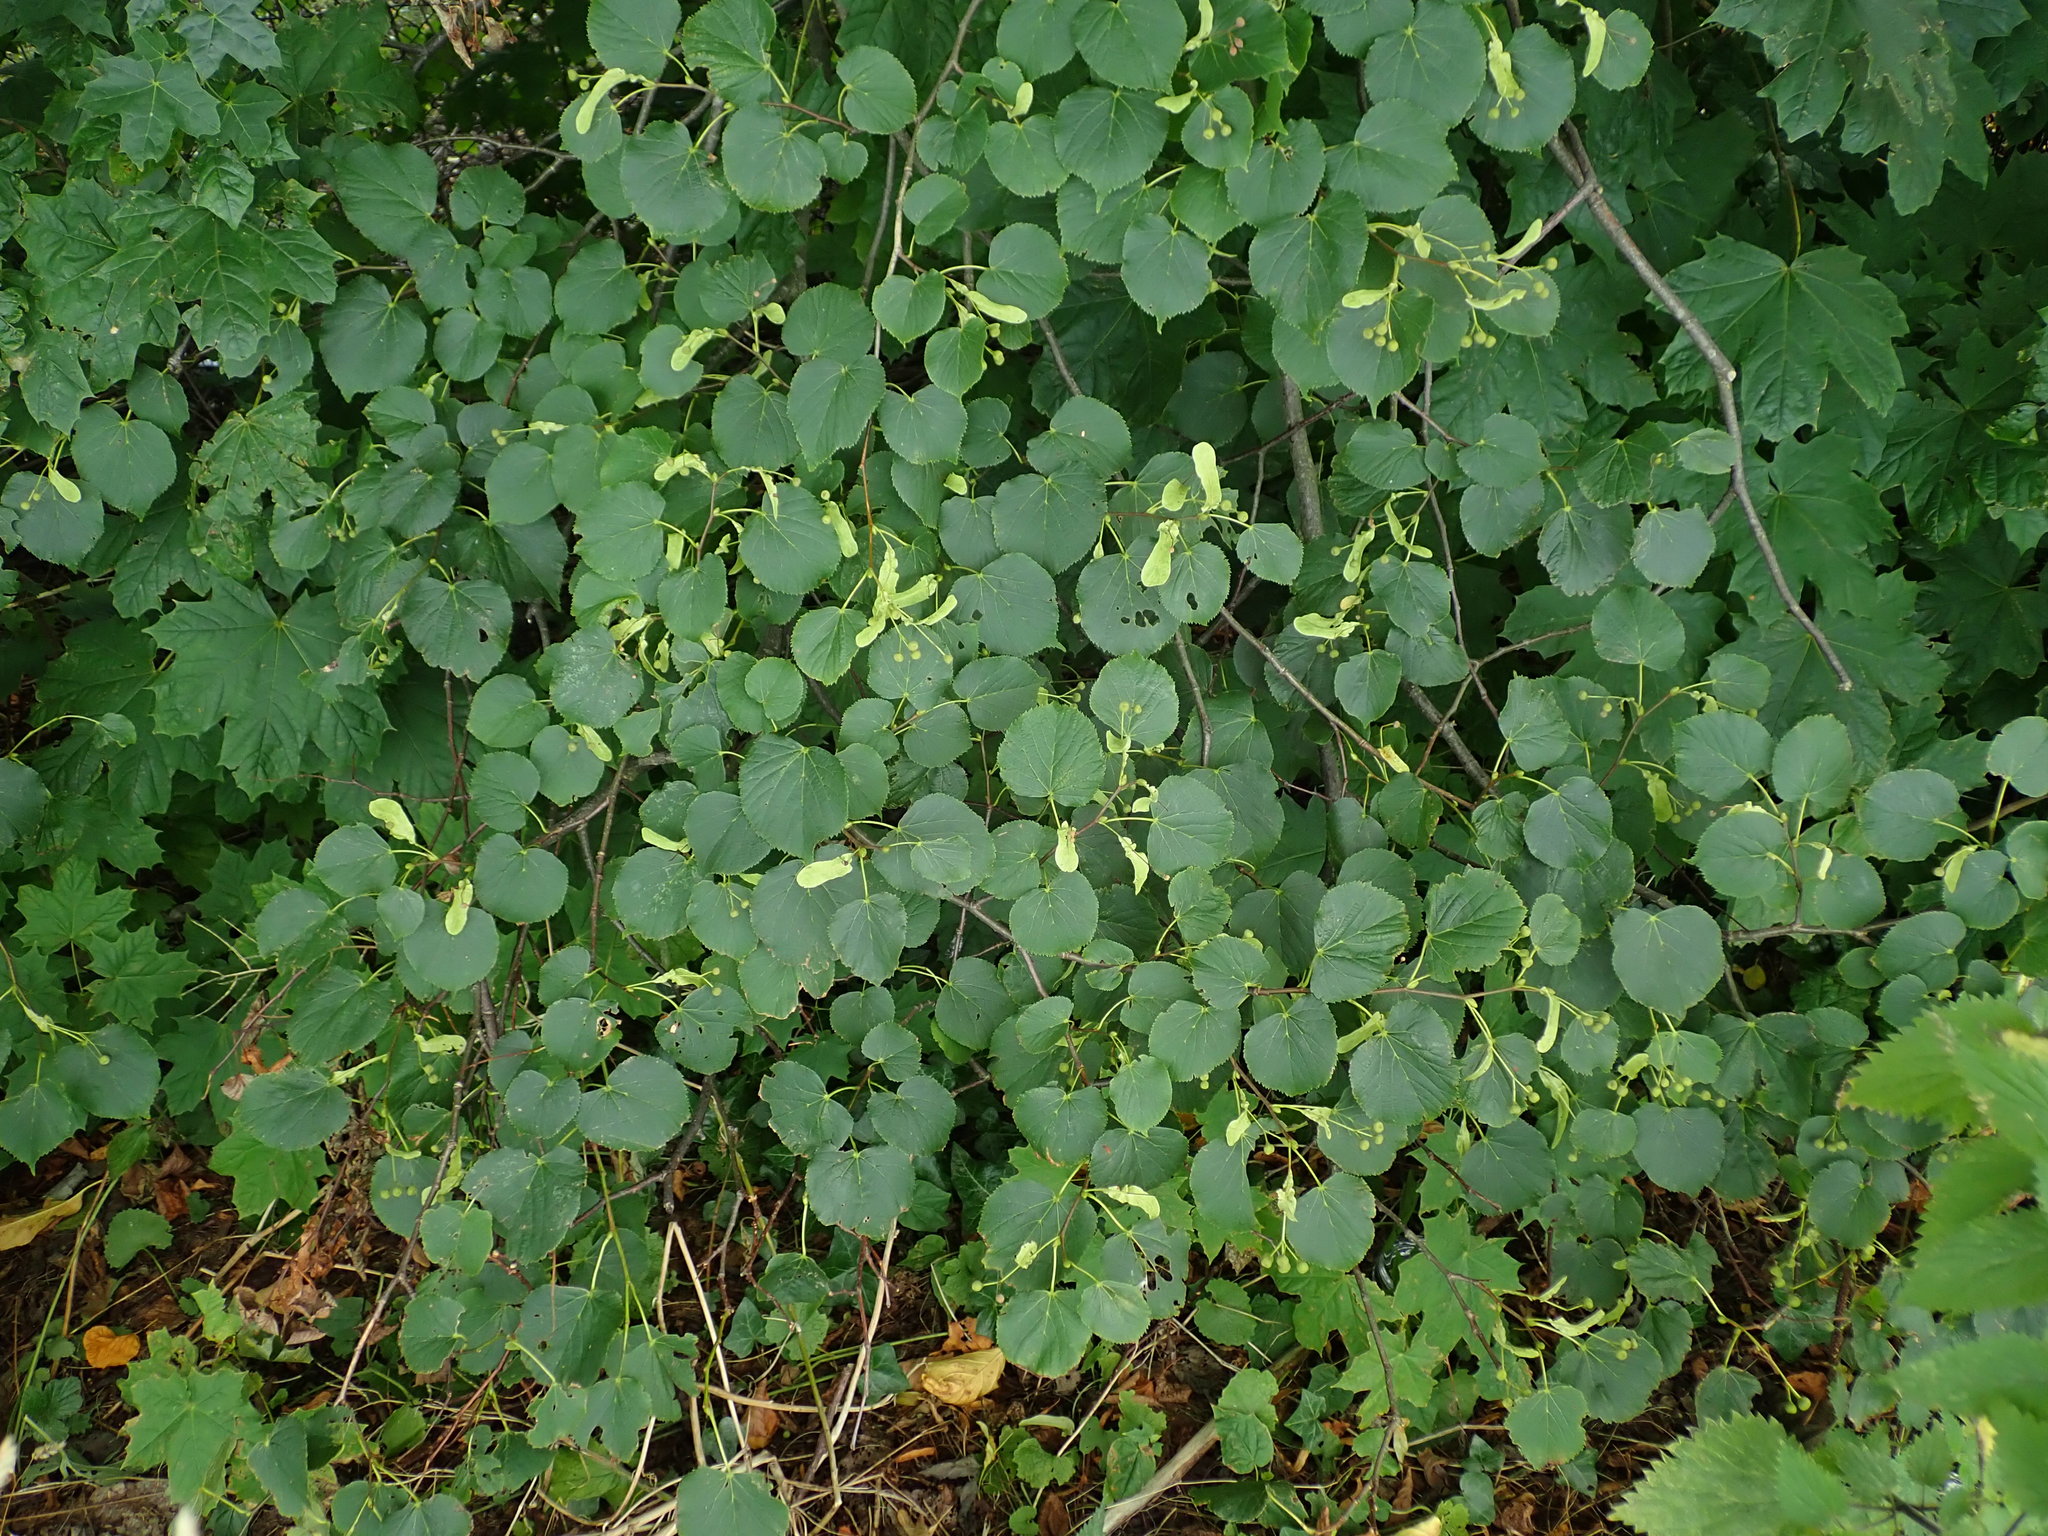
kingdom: Plantae
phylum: Tracheophyta
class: Magnoliopsida
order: Malvales
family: Malvaceae
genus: Tilia
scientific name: Tilia cordata
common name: Small-leaved lime
